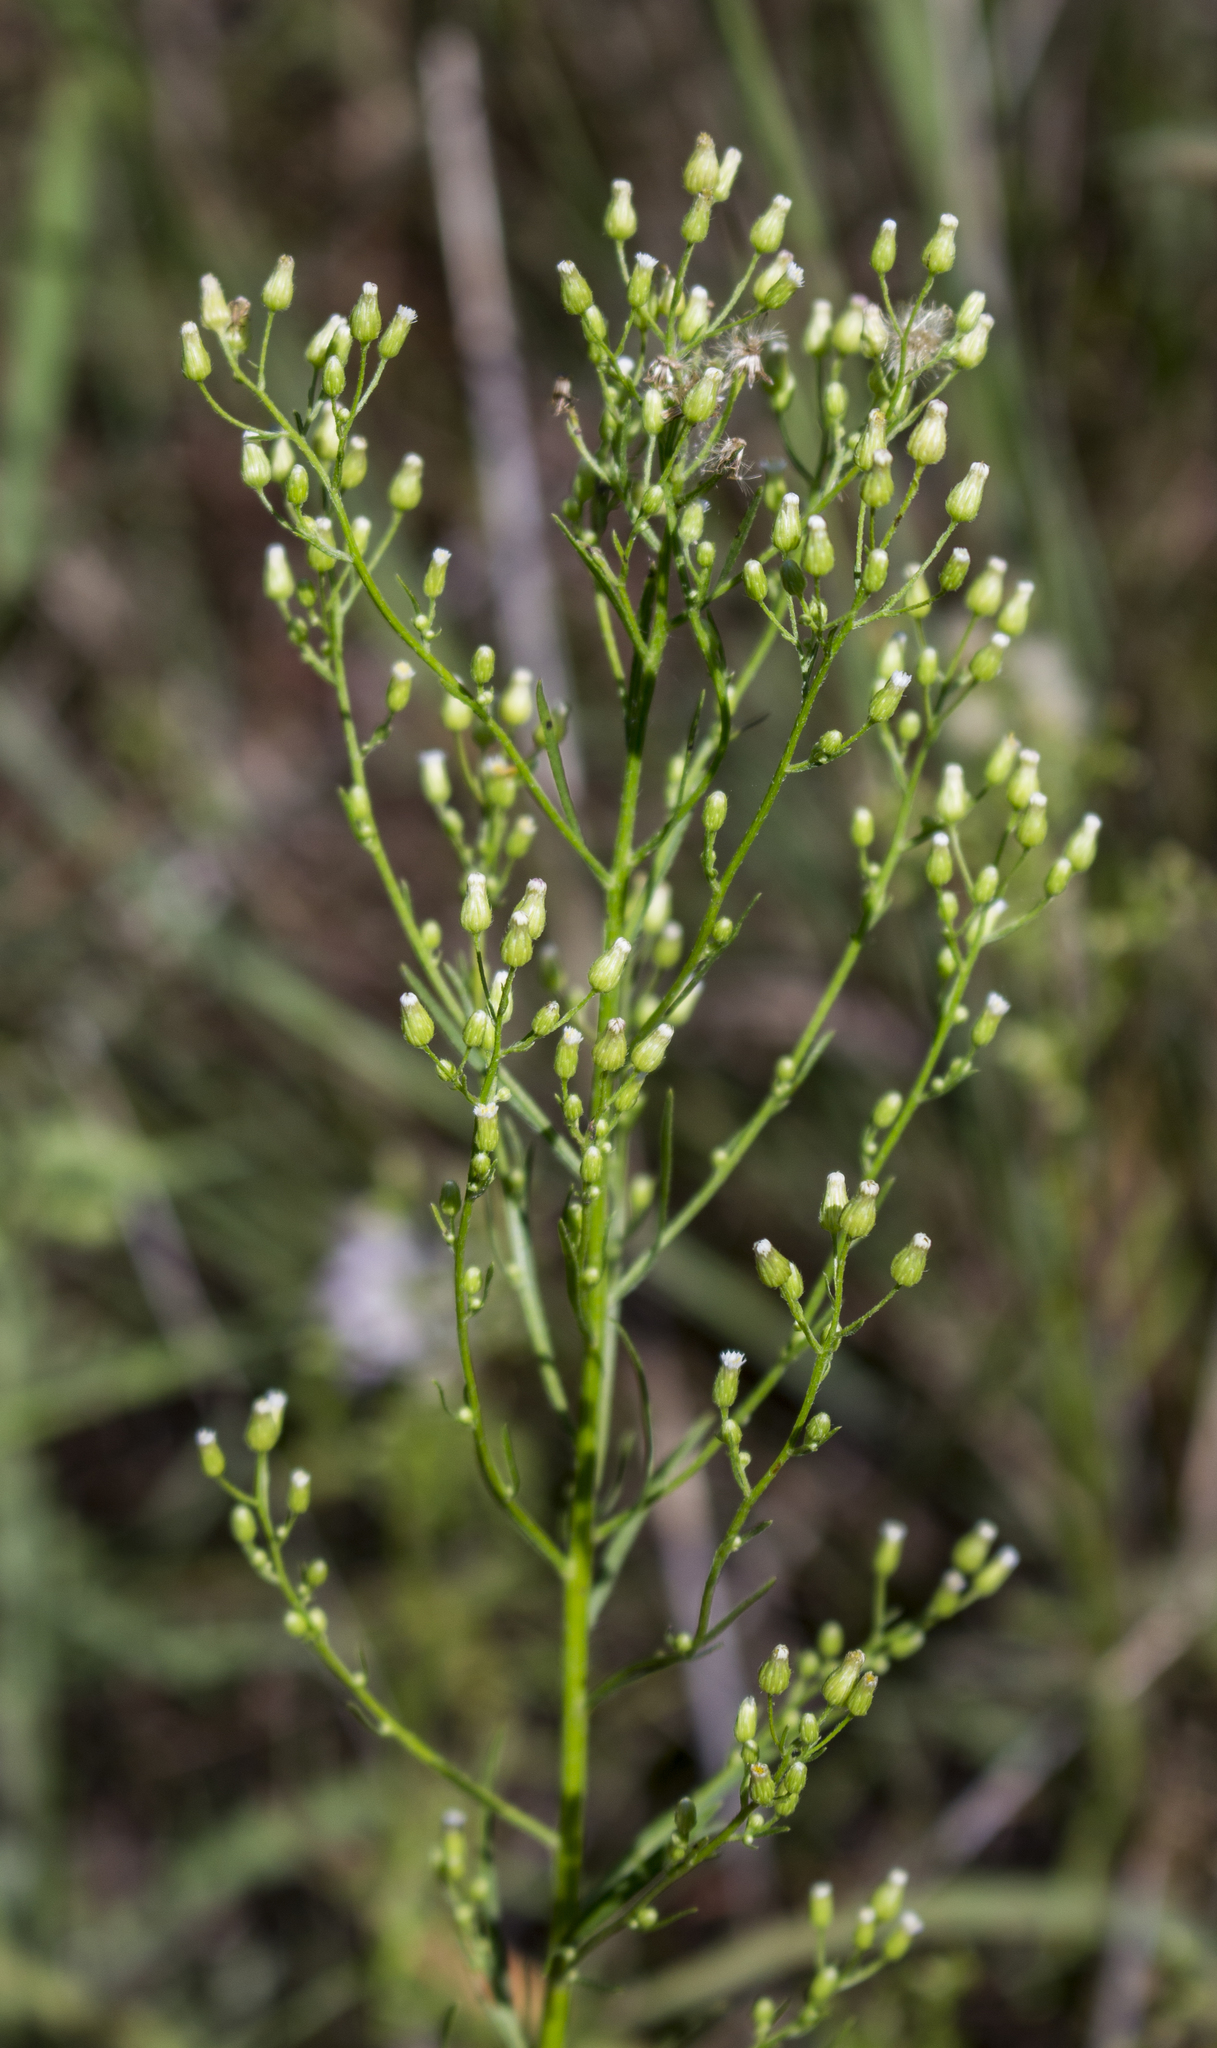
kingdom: Plantae
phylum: Tracheophyta
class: Magnoliopsida
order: Asterales
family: Asteraceae
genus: Erigeron
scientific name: Erigeron canadensis
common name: Canadian fleabane
